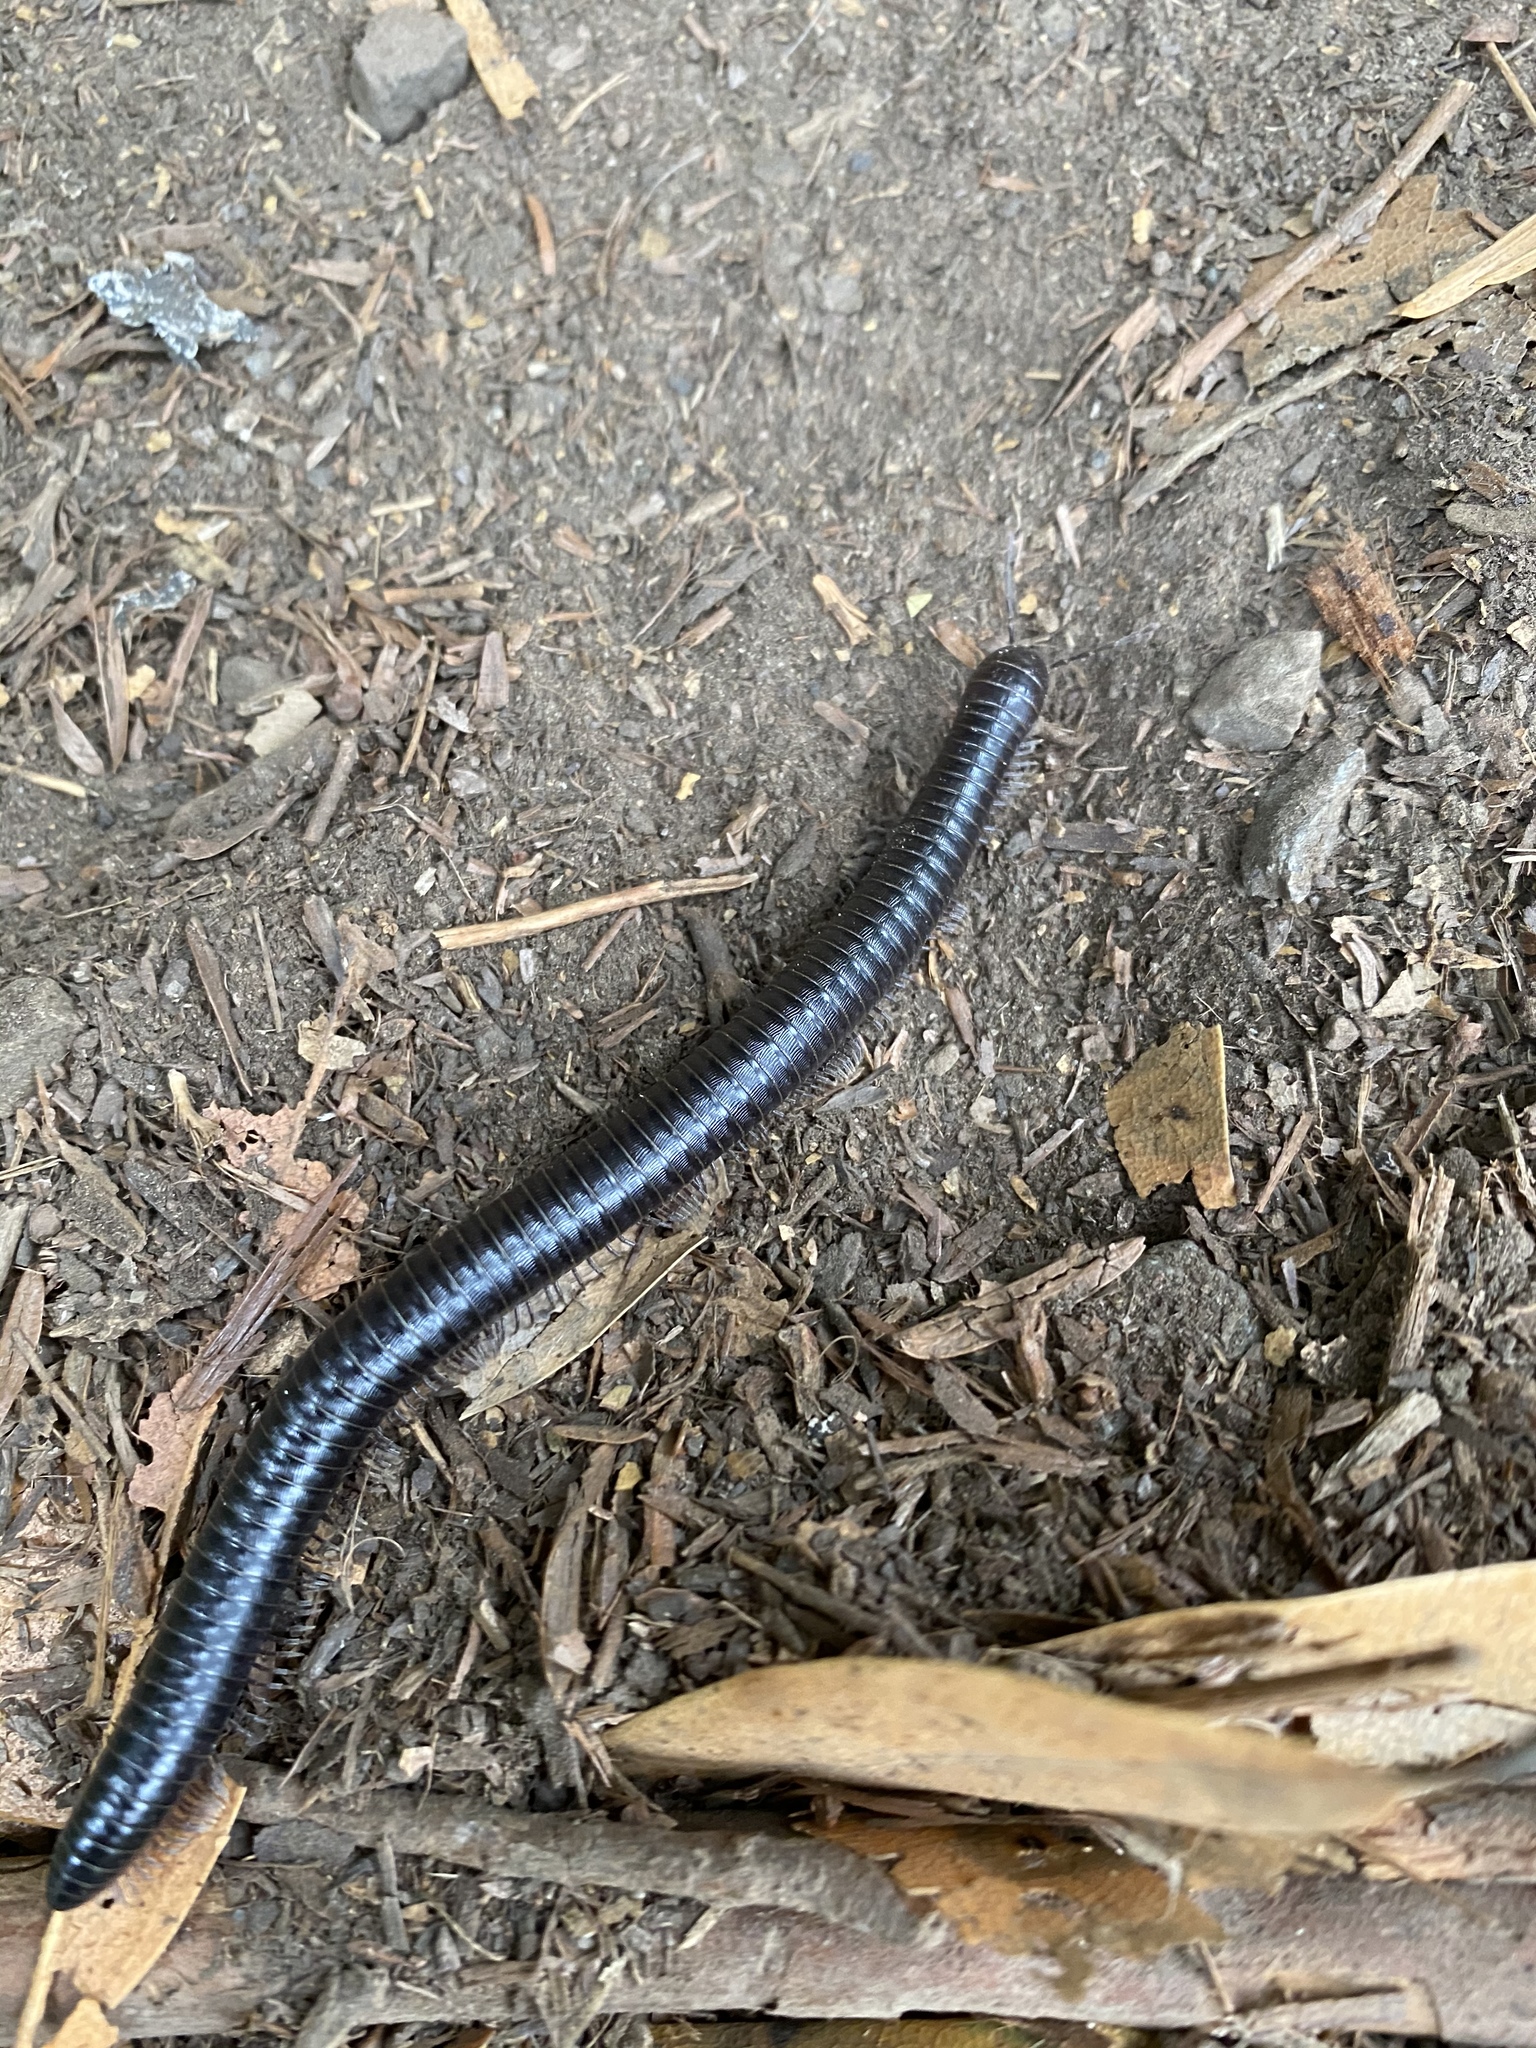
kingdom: Animalia
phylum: Arthropoda
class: Diplopoda
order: Julida
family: Paeromopodidae
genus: Paeromopus
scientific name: Paeromopus angusticeps
